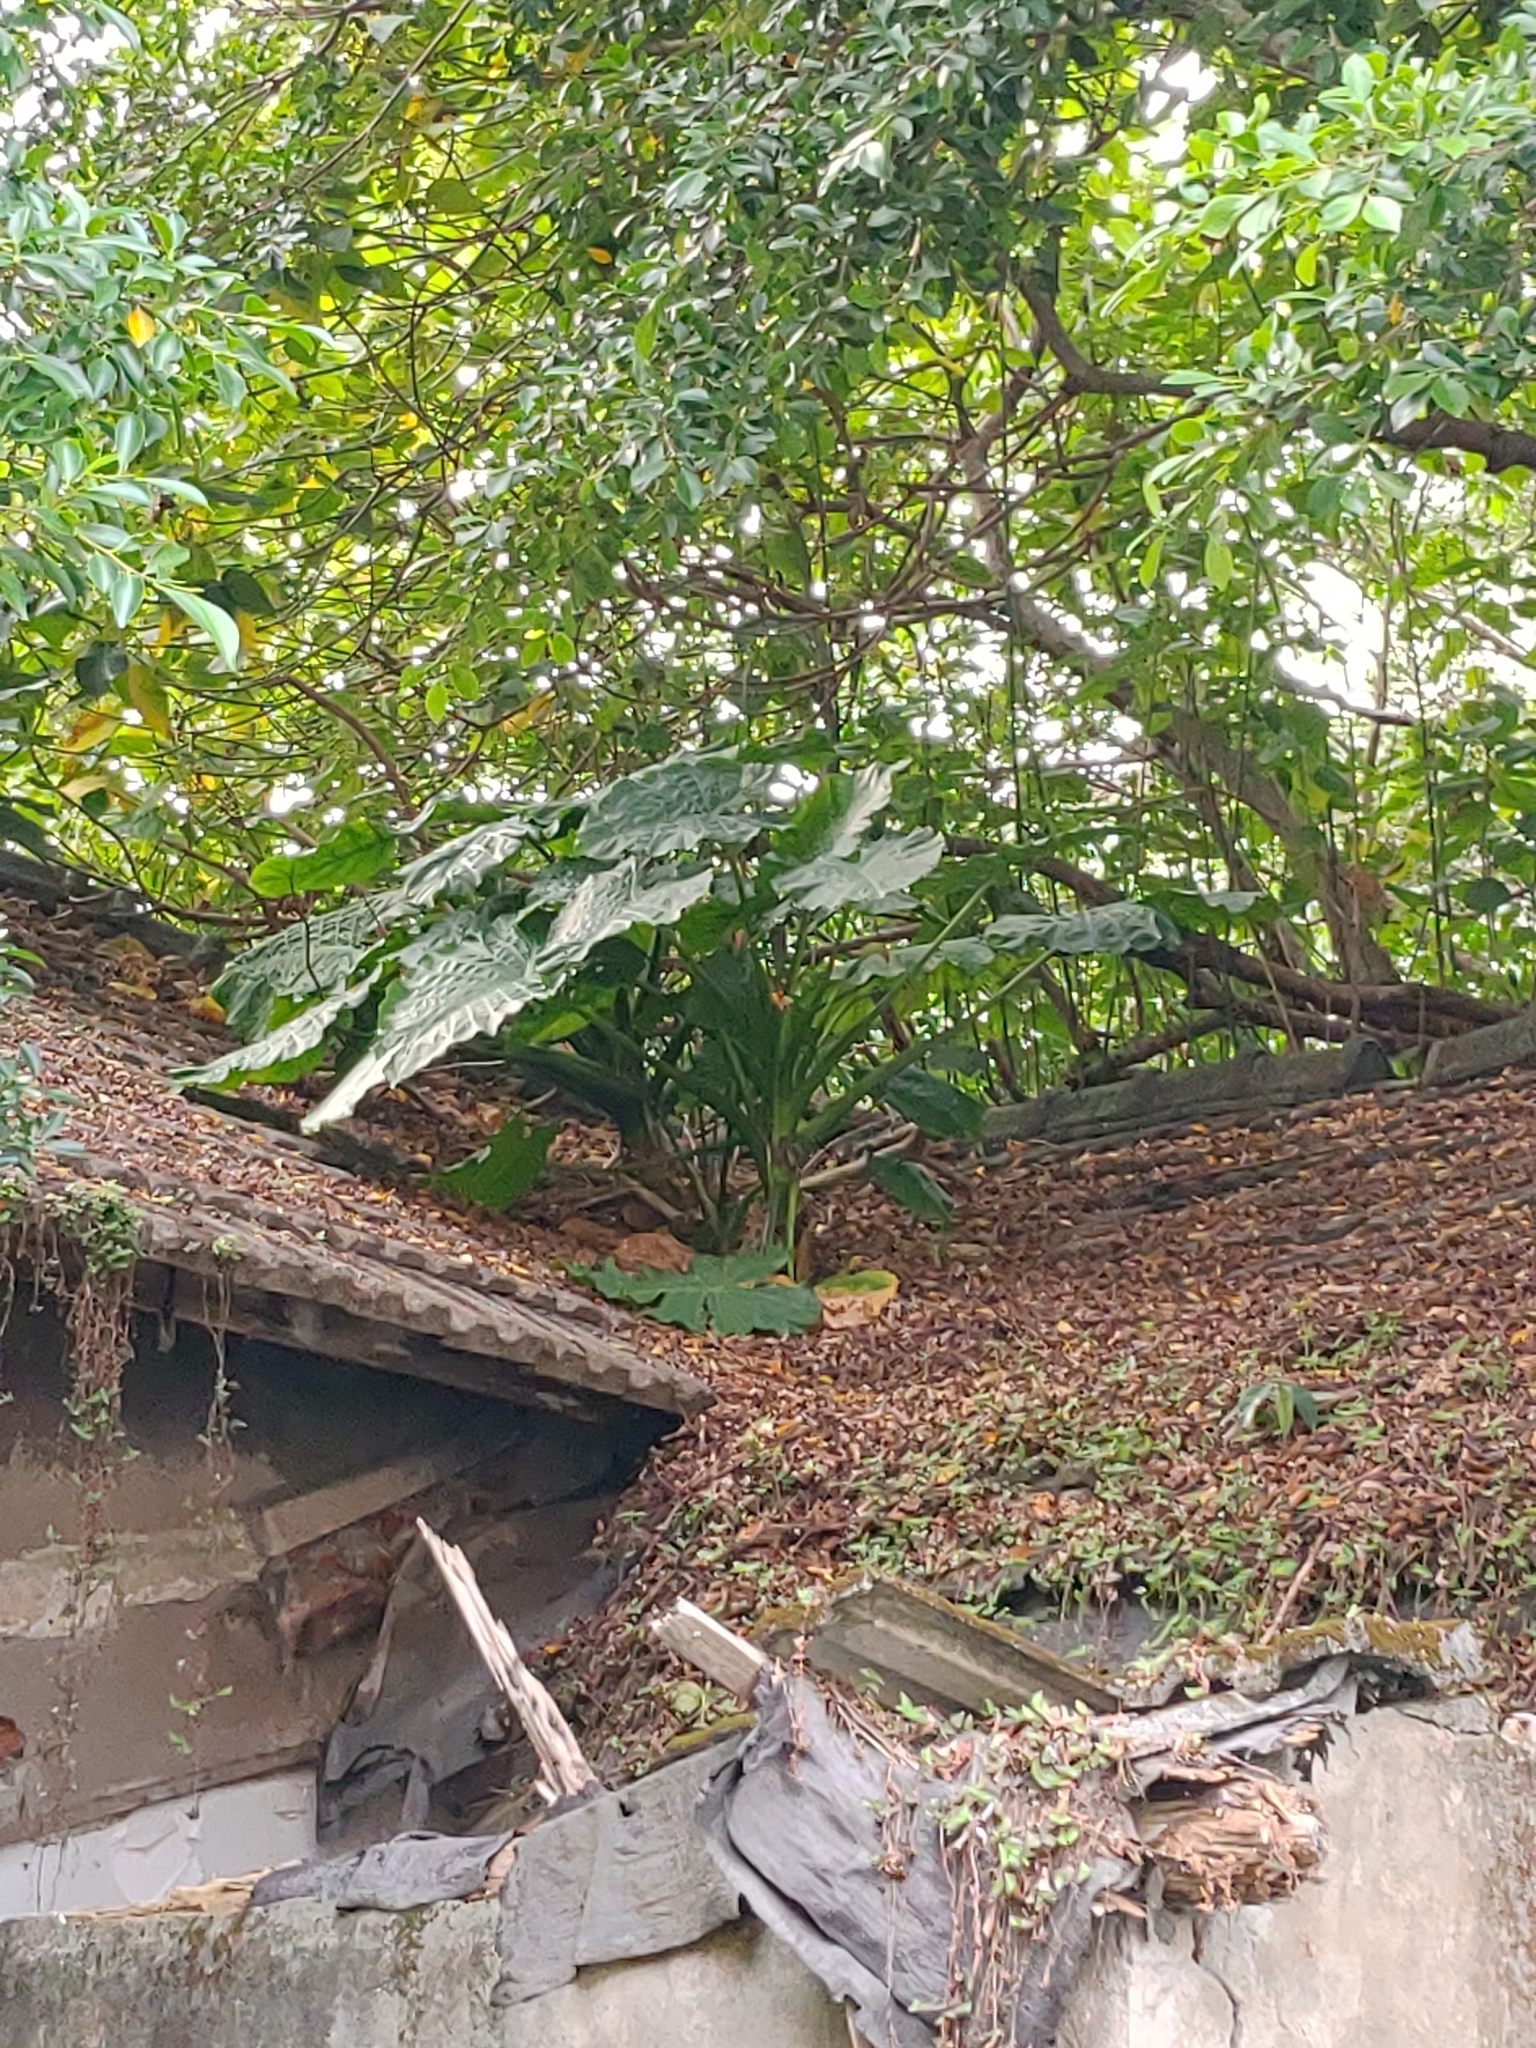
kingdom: Plantae
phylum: Tracheophyta
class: Liliopsida
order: Alismatales
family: Araceae
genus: Alocasia
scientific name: Alocasia odora
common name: Asian taro
